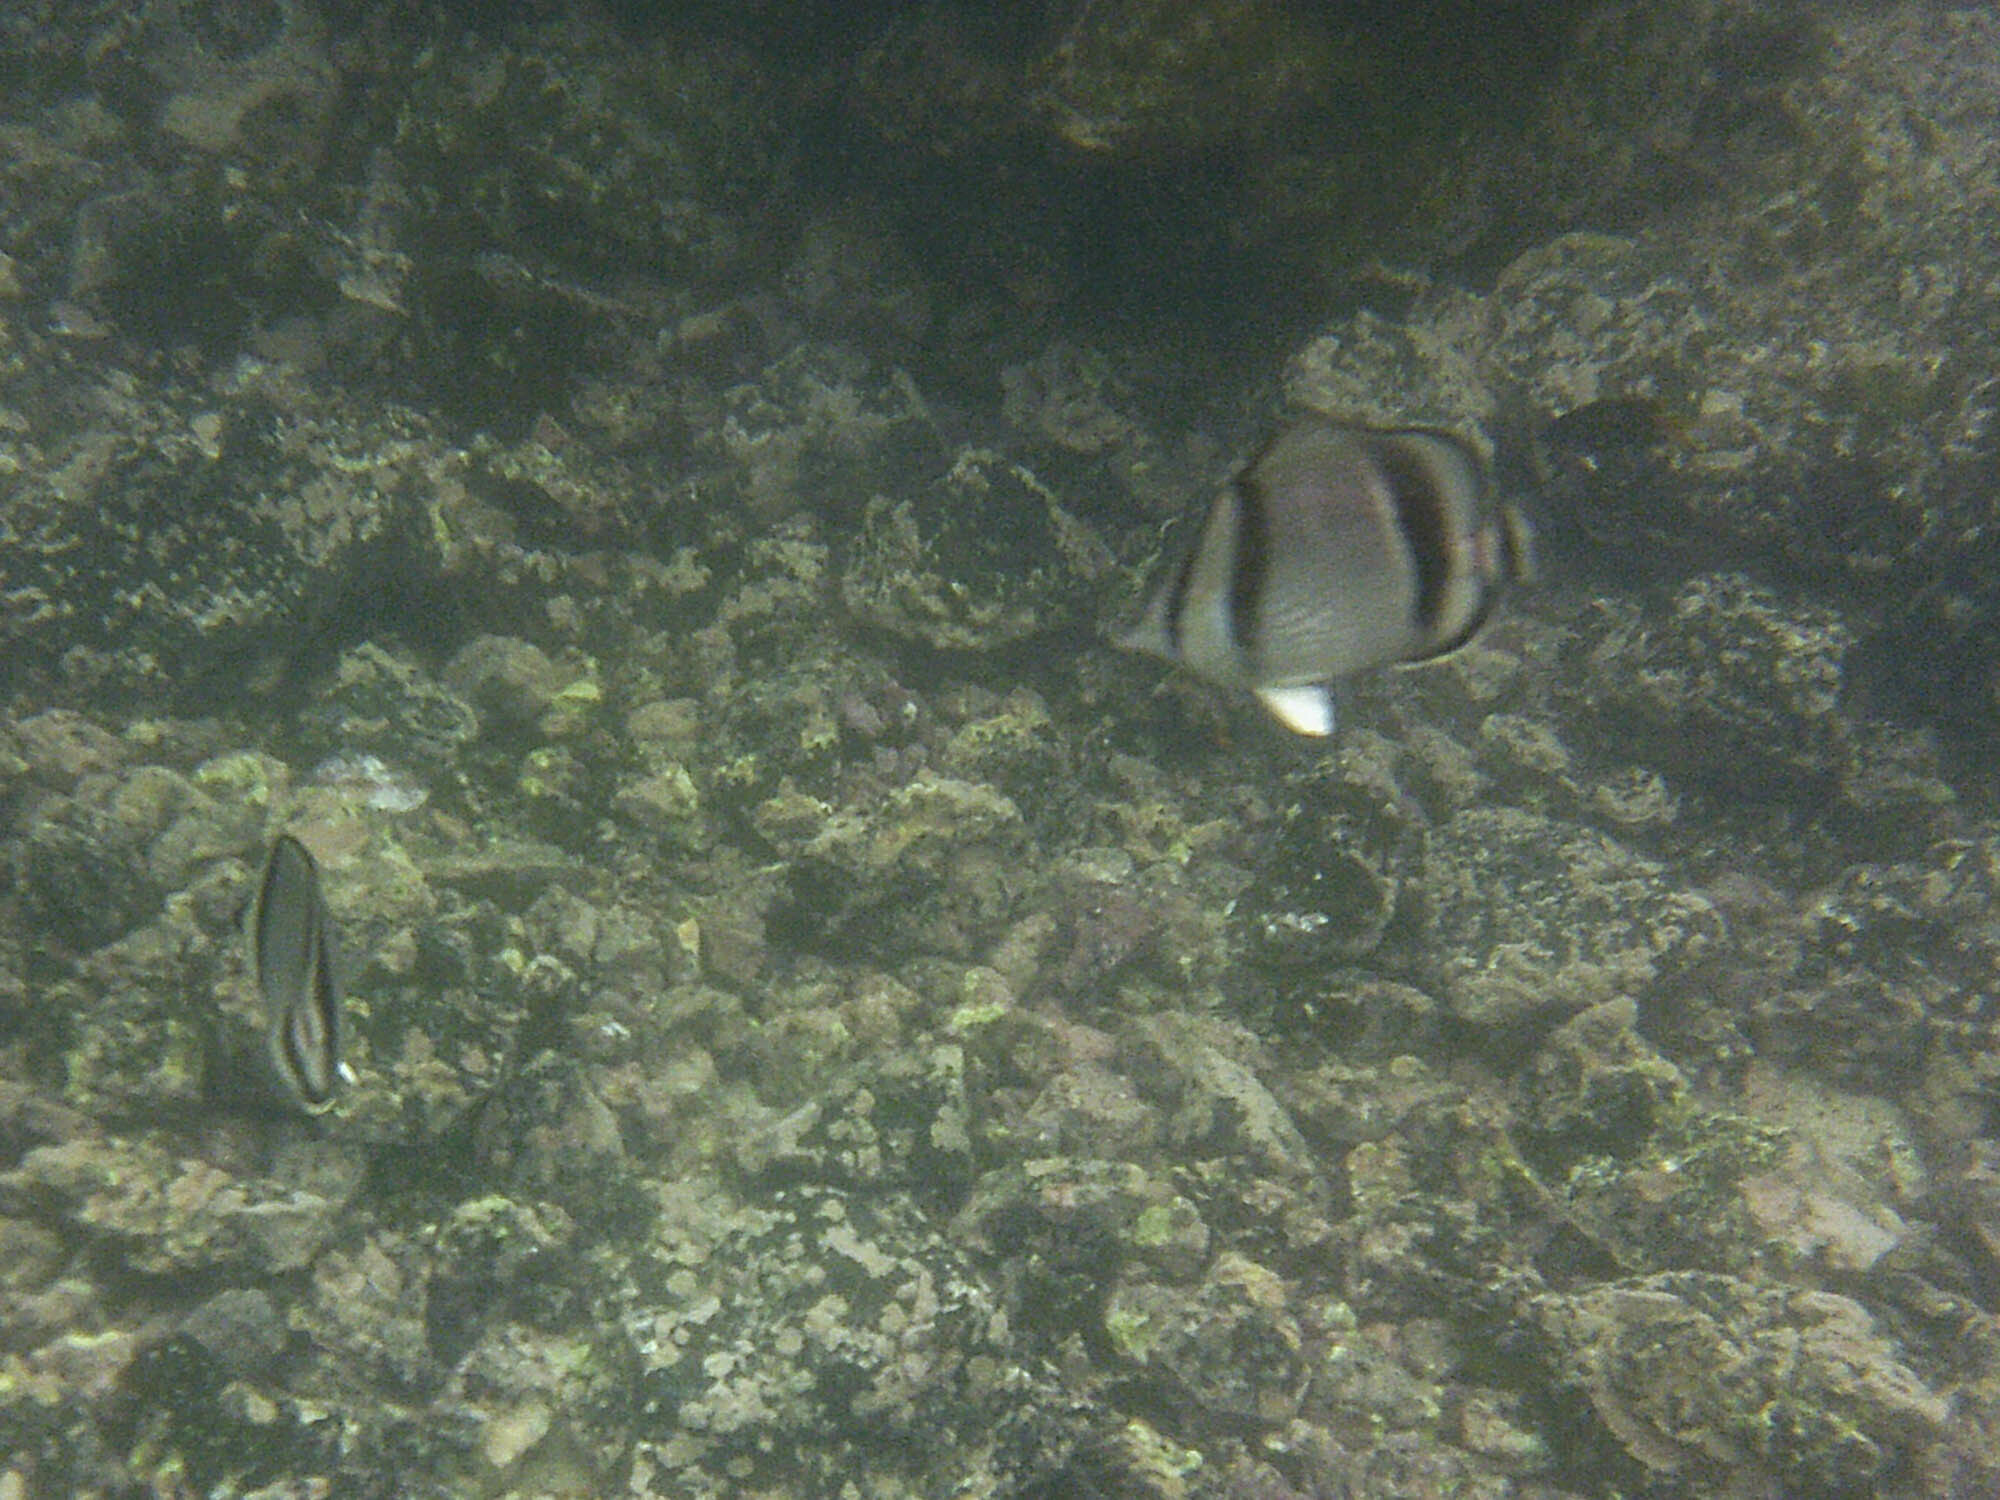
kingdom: Animalia
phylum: Chordata
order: Perciformes
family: Chaetodontidae
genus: Chaetodon
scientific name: Chaetodon humeralis
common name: Threebanded butterflyfish
